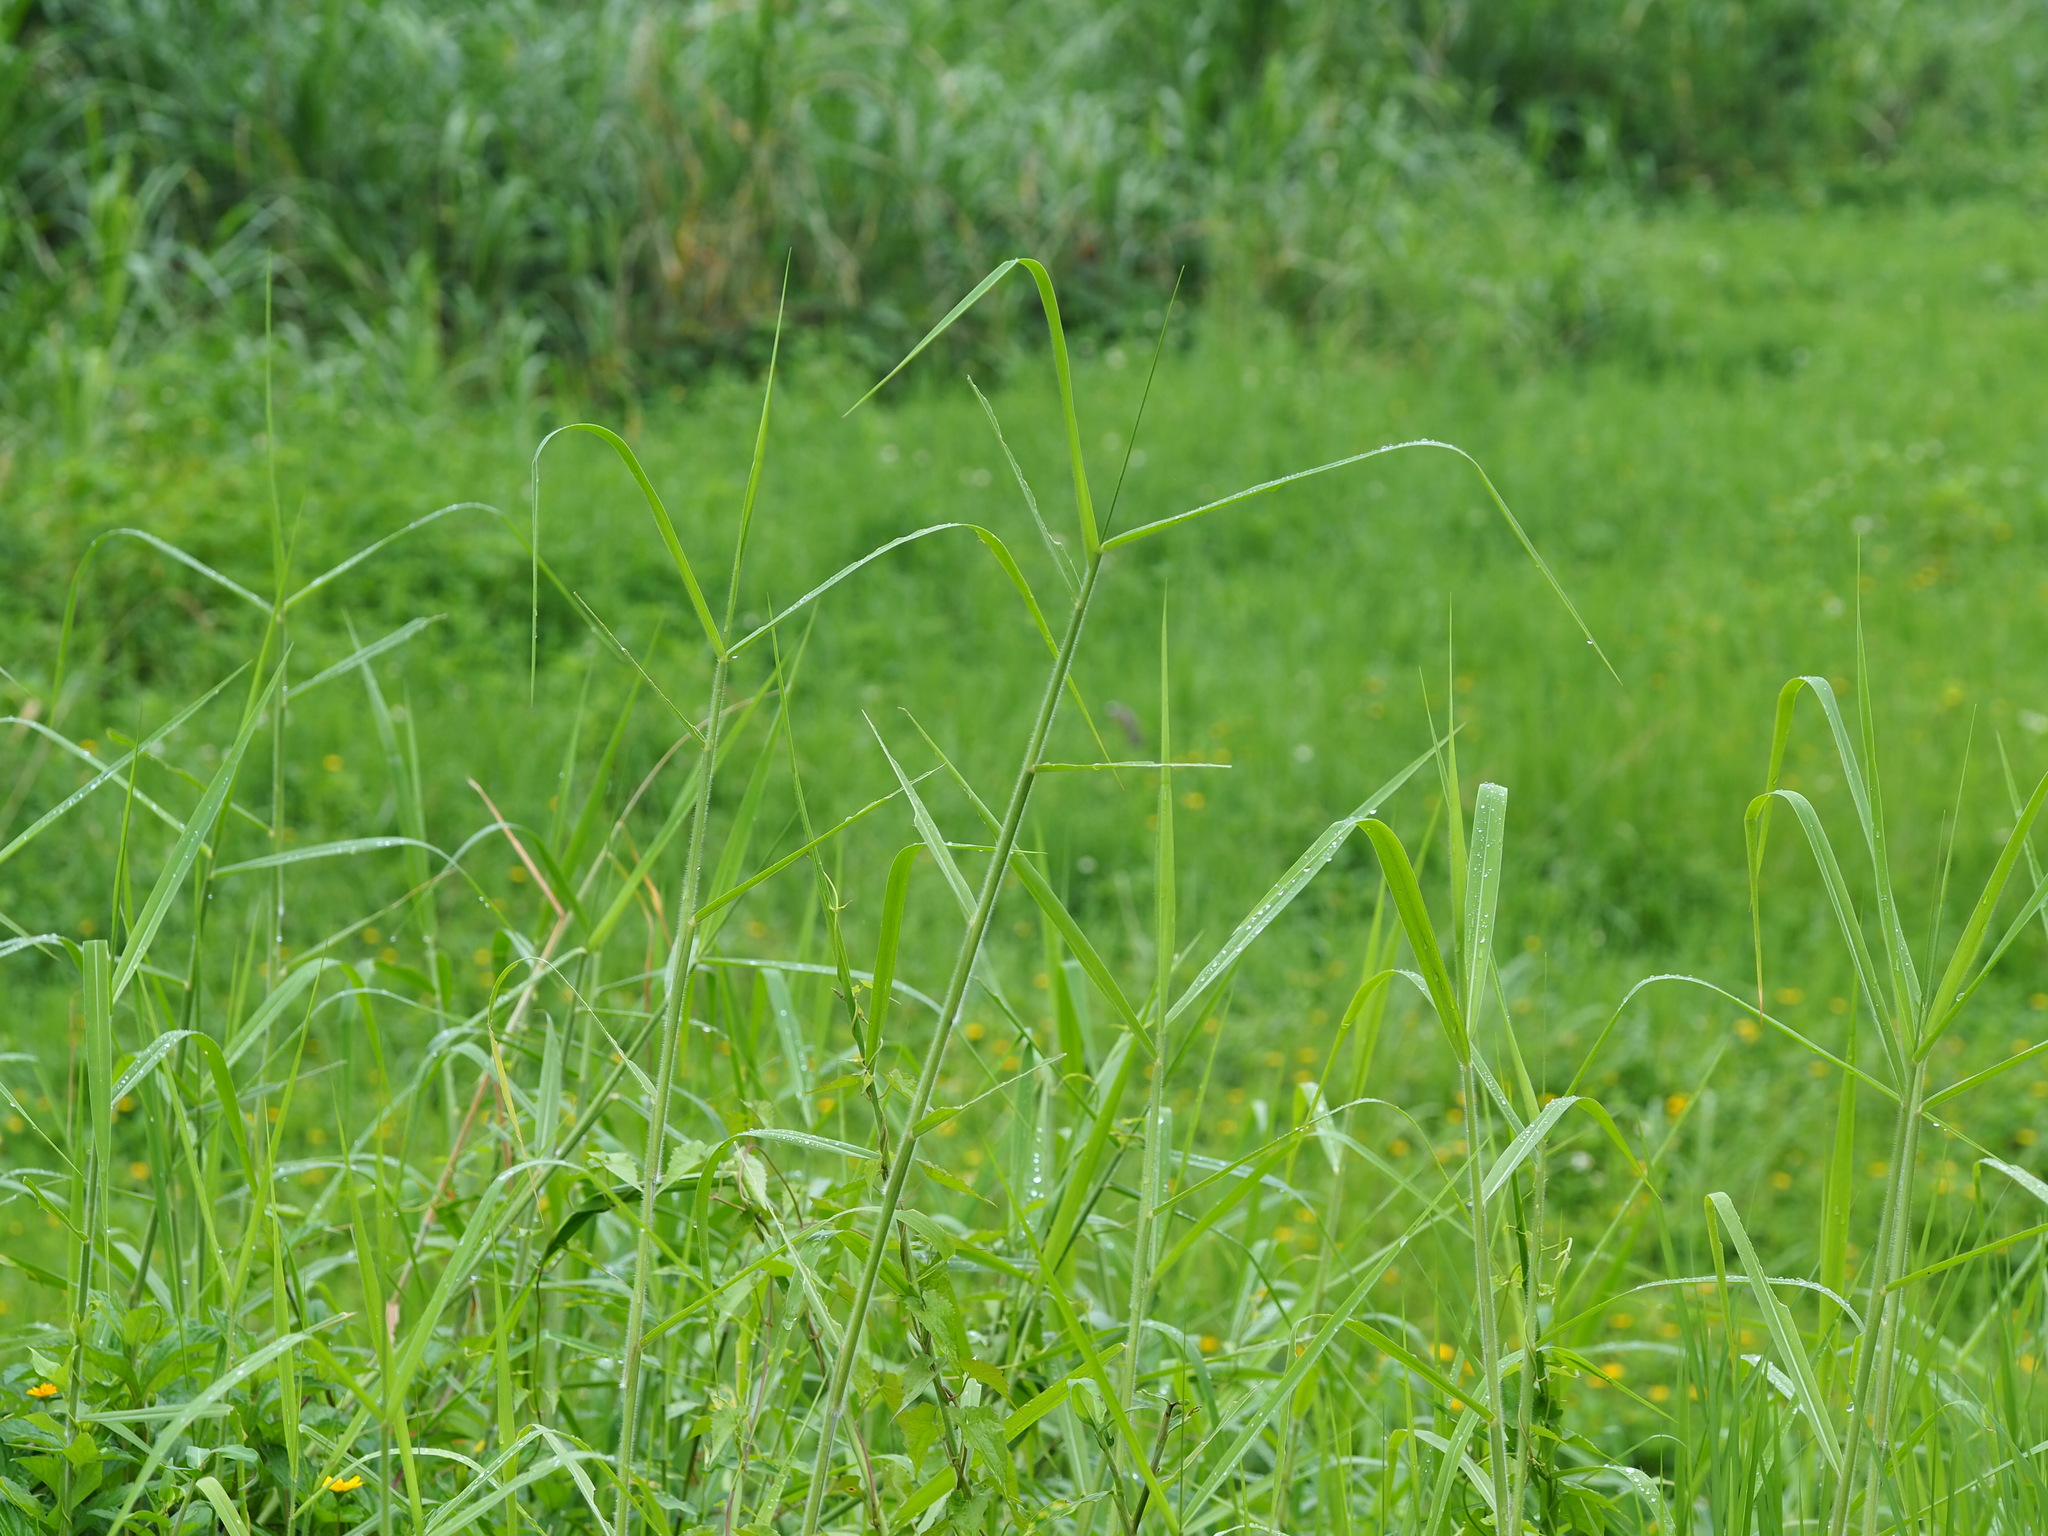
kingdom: Plantae
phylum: Tracheophyta
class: Liliopsida
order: Poales
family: Poaceae
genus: Urochloa
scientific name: Urochloa mutica
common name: Para grass
